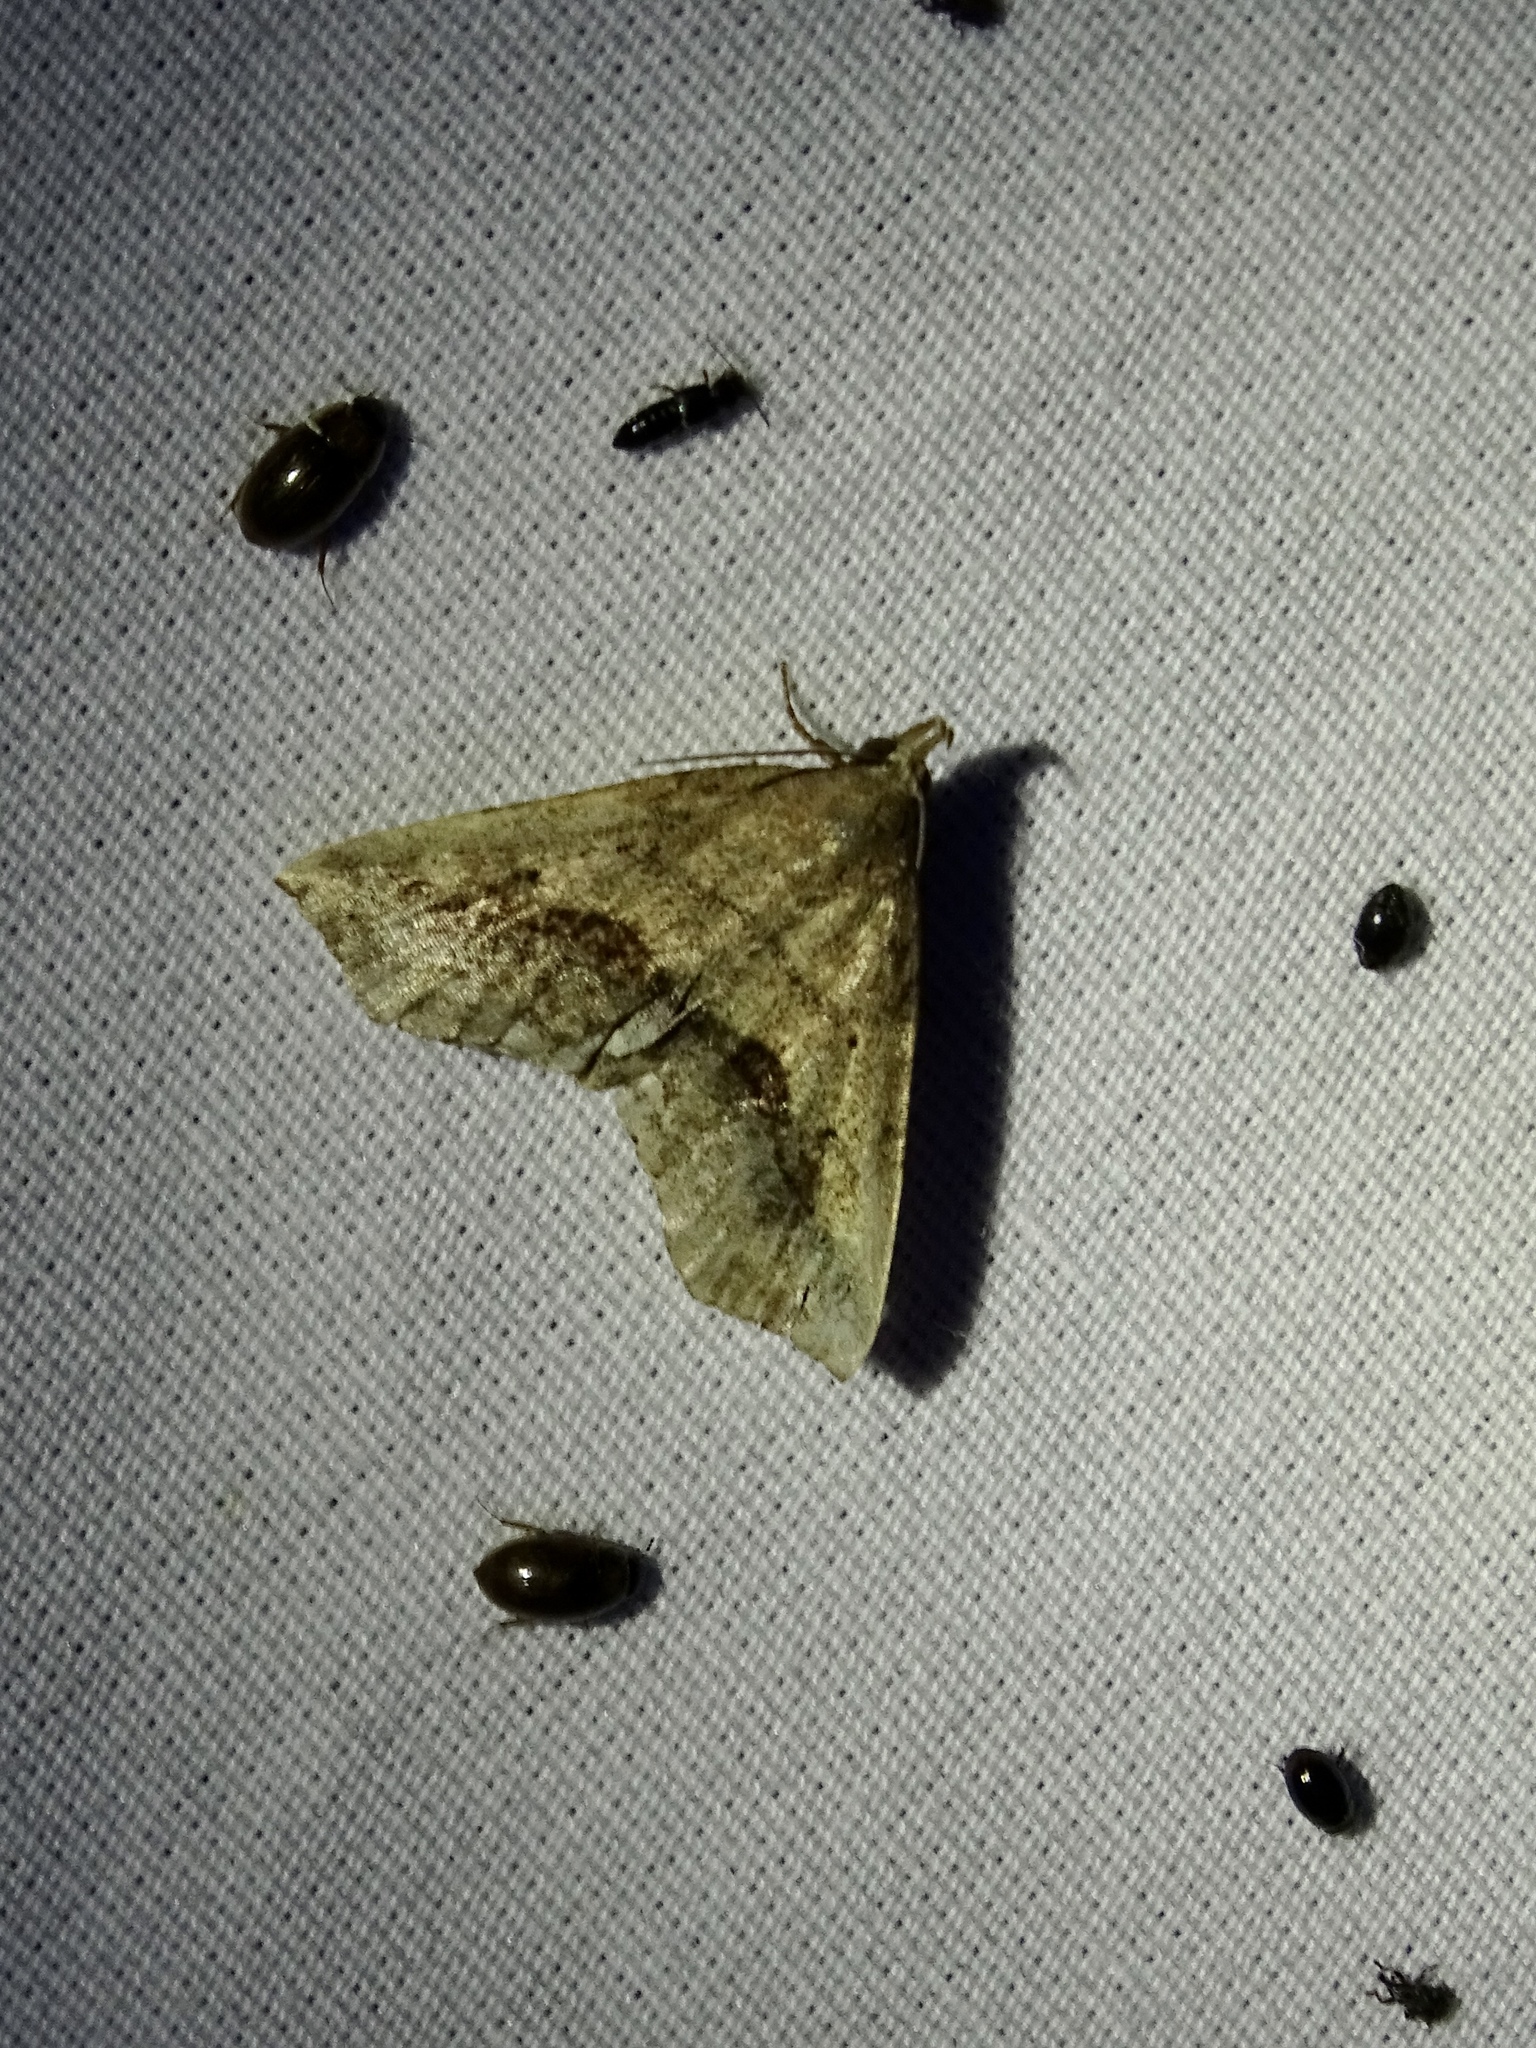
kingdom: Animalia
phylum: Arthropoda
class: Insecta
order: Lepidoptera
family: Erebidae
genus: Spargaloma
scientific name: Spargaloma perditalis
